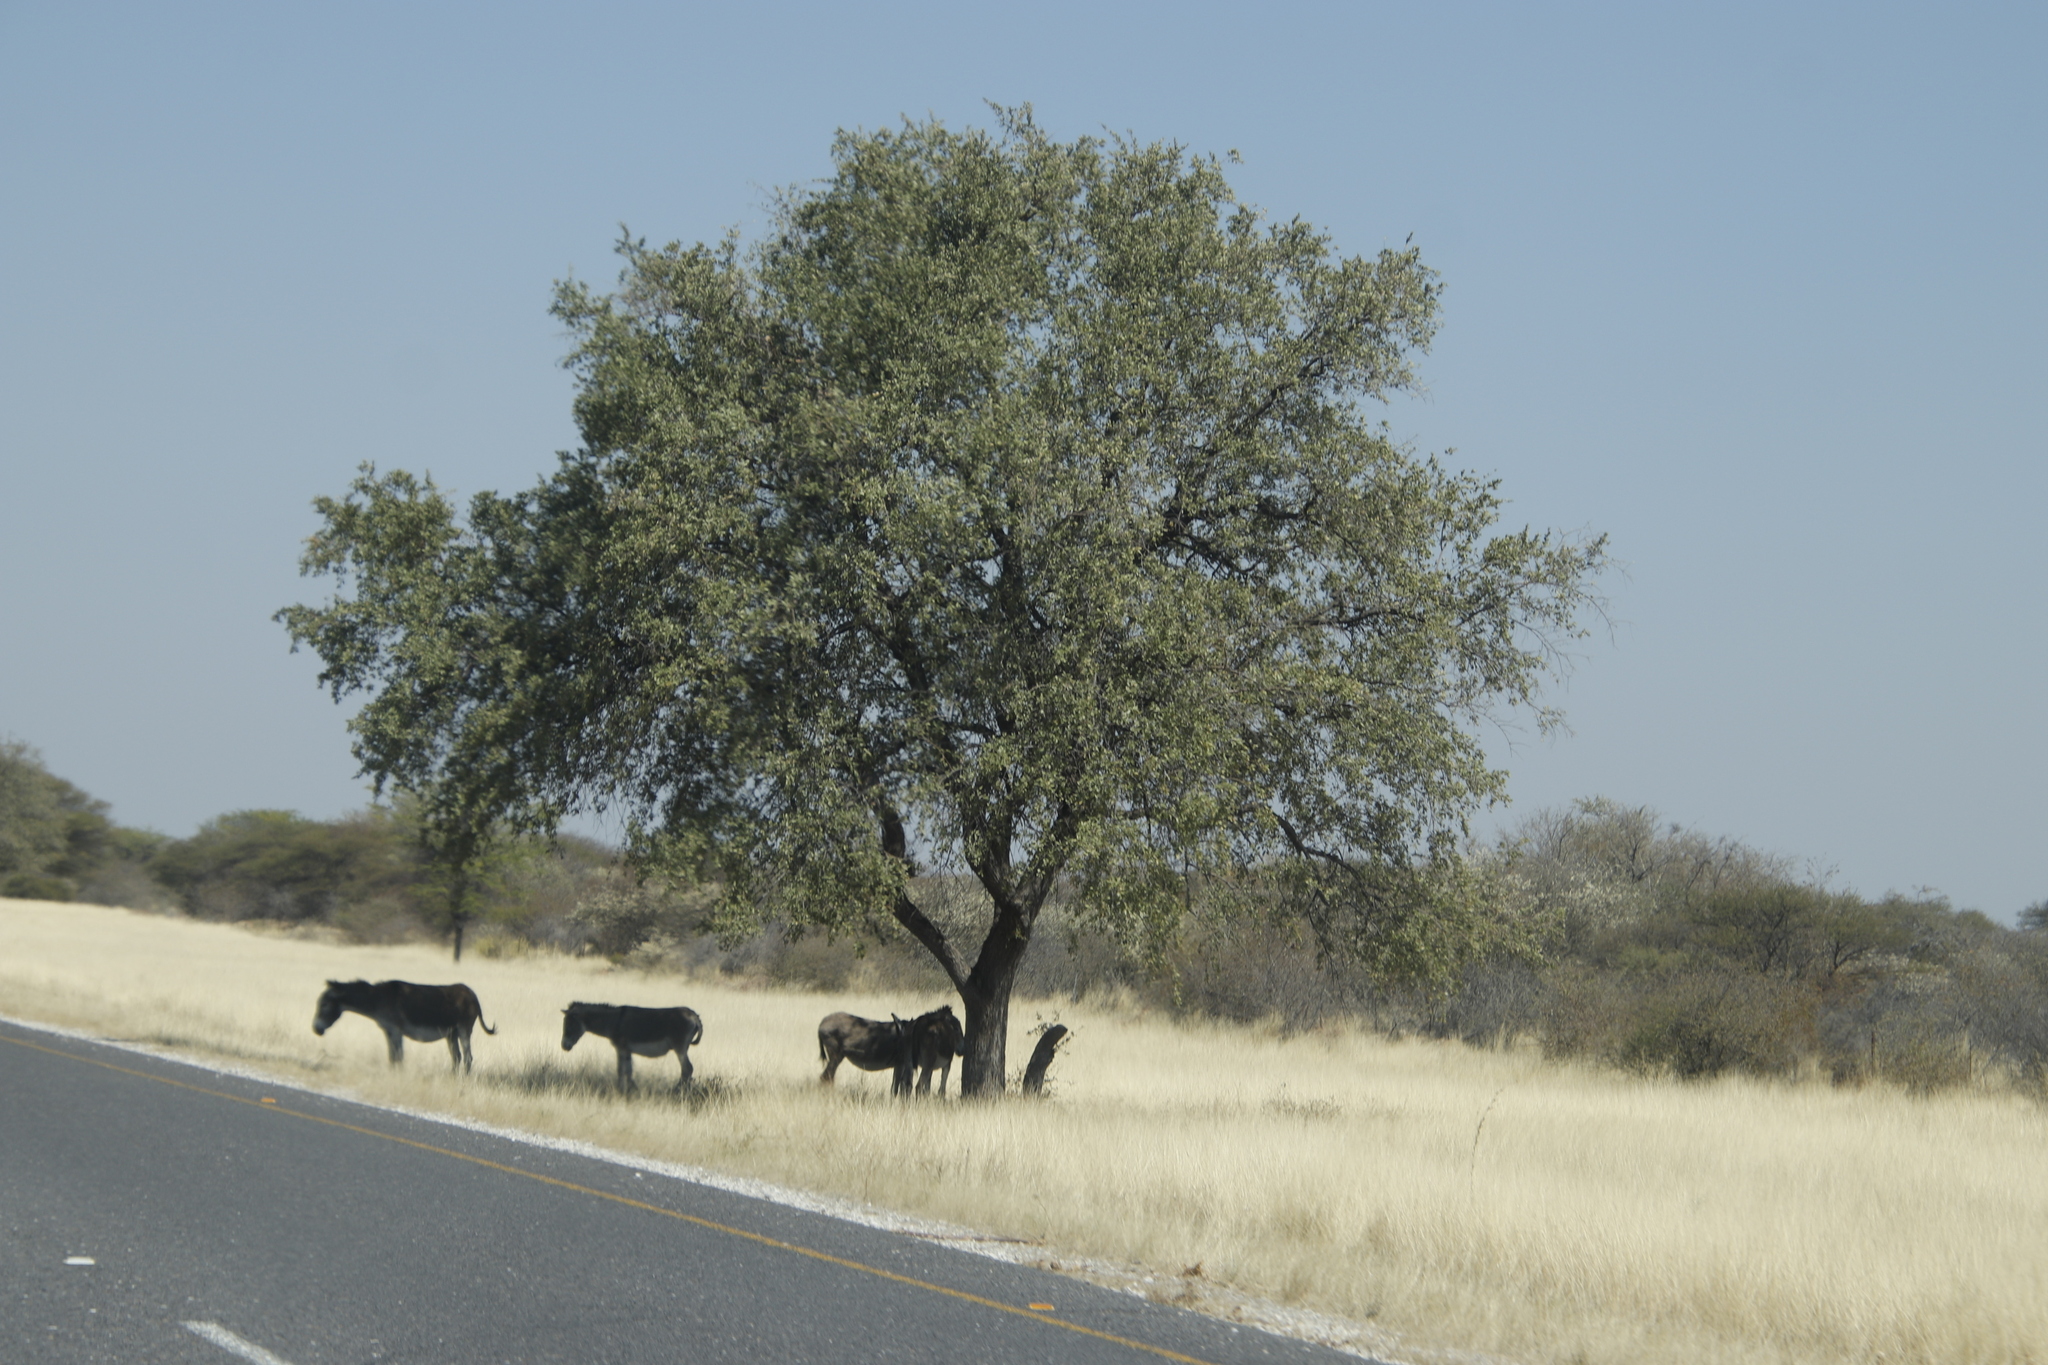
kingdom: Animalia
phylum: Chordata
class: Mammalia
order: Perissodactyla
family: Equidae
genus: Equus
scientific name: Equus asinus
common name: Ass
